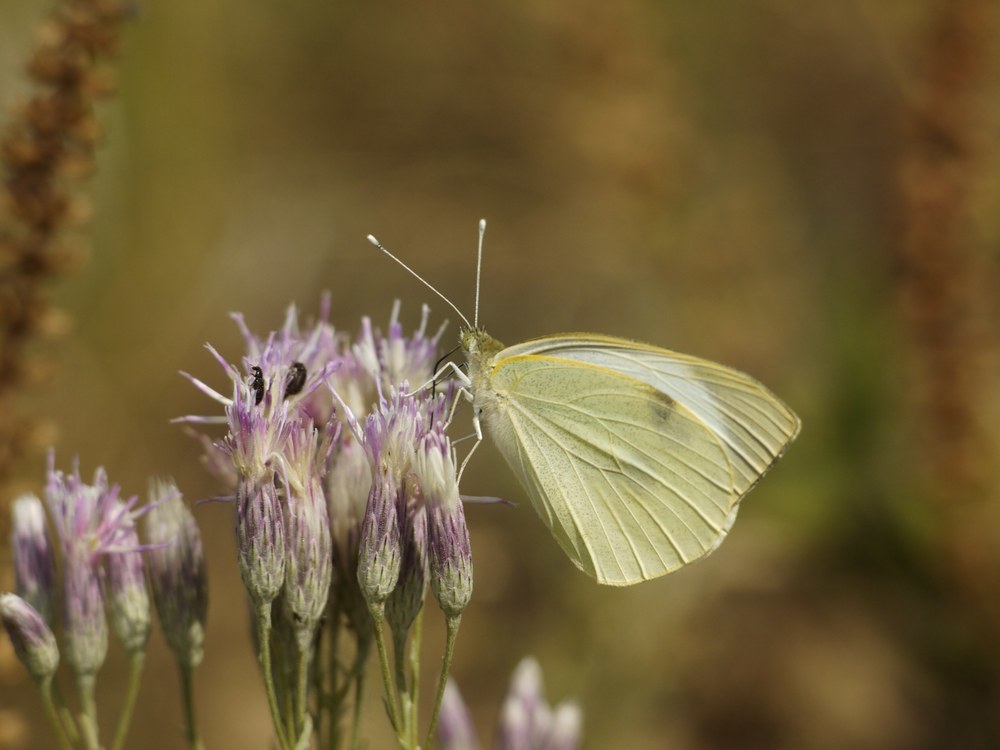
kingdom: Animalia
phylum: Arthropoda
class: Insecta
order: Lepidoptera
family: Pieridae
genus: Pieris
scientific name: Pieris brassicae
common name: Large white
